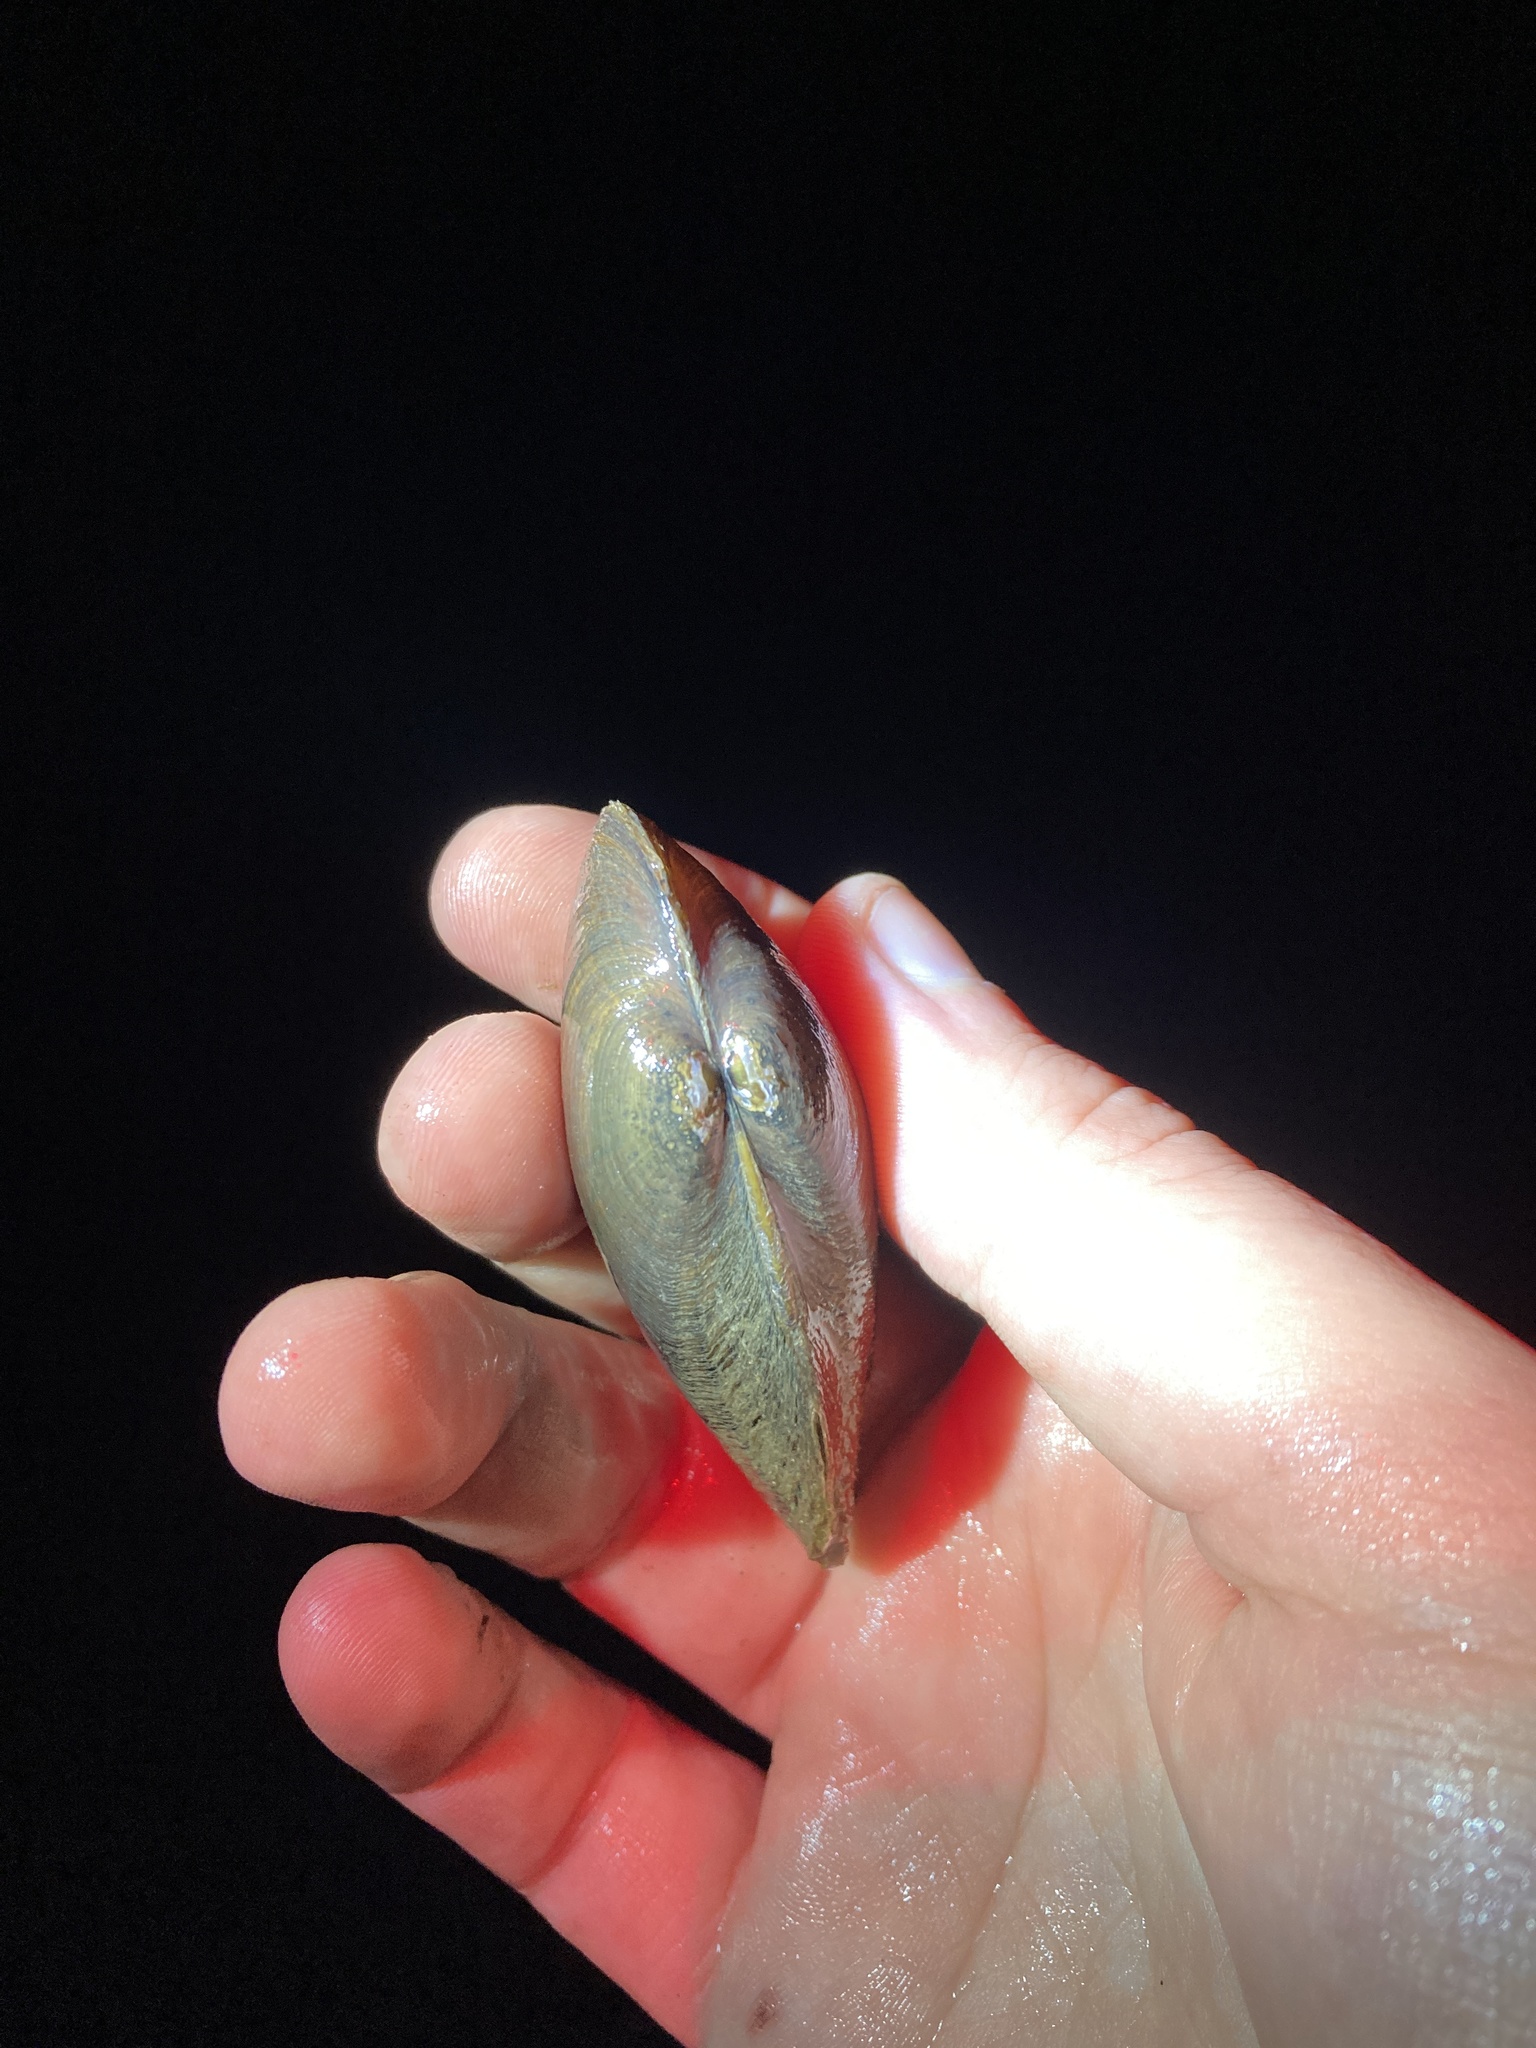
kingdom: Animalia
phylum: Mollusca
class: Bivalvia
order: Unionida
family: Unionidae
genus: Sagittunio
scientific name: Sagittunio subrostratus
